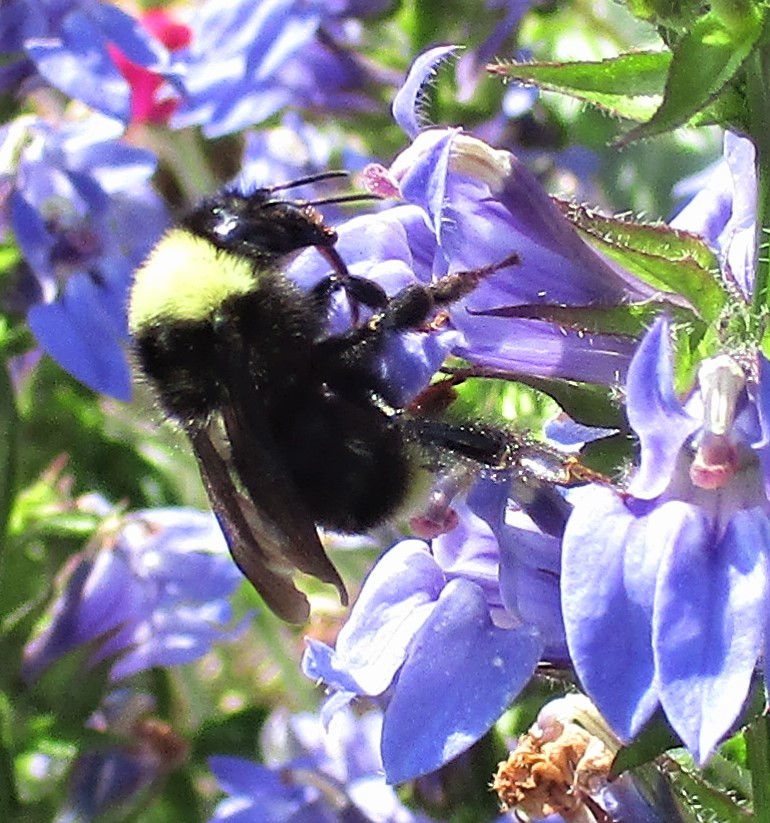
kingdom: Animalia
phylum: Arthropoda
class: Insecta
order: Hymenoptera
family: Apidae
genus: Bombus
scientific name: Bombus californicus
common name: California bumble bee
